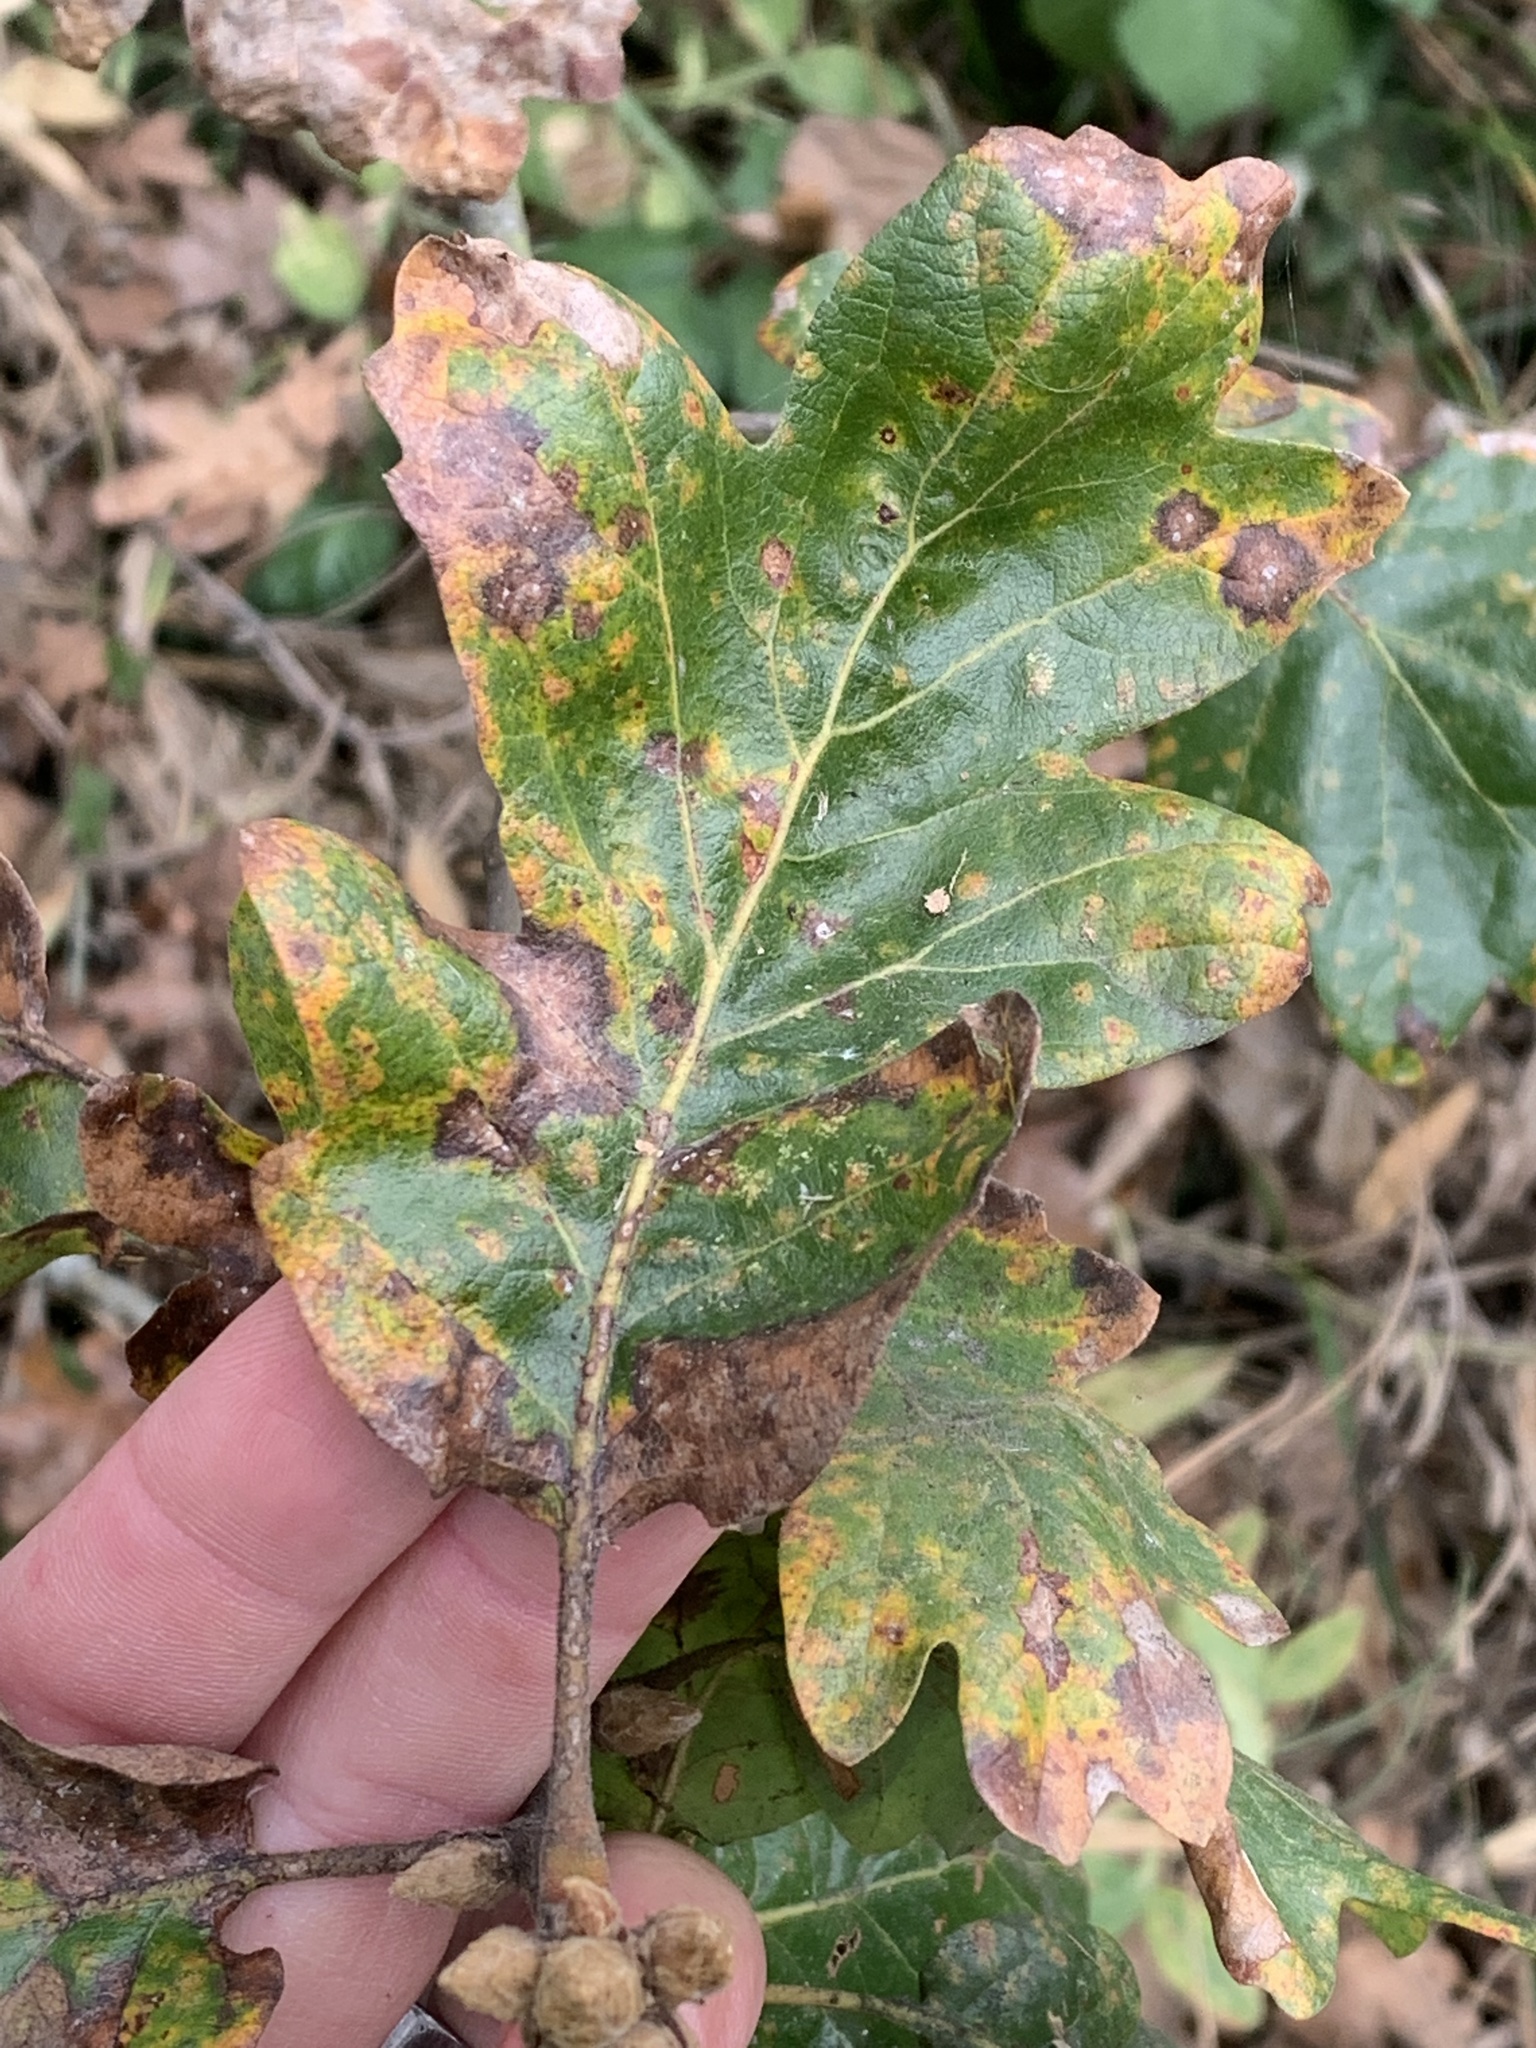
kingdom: Plantae
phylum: Tracheophyta
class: Magnoliopsida
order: Fagales
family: Fagaceae
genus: Quercus
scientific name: Quercus garryana
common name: Garry oak
